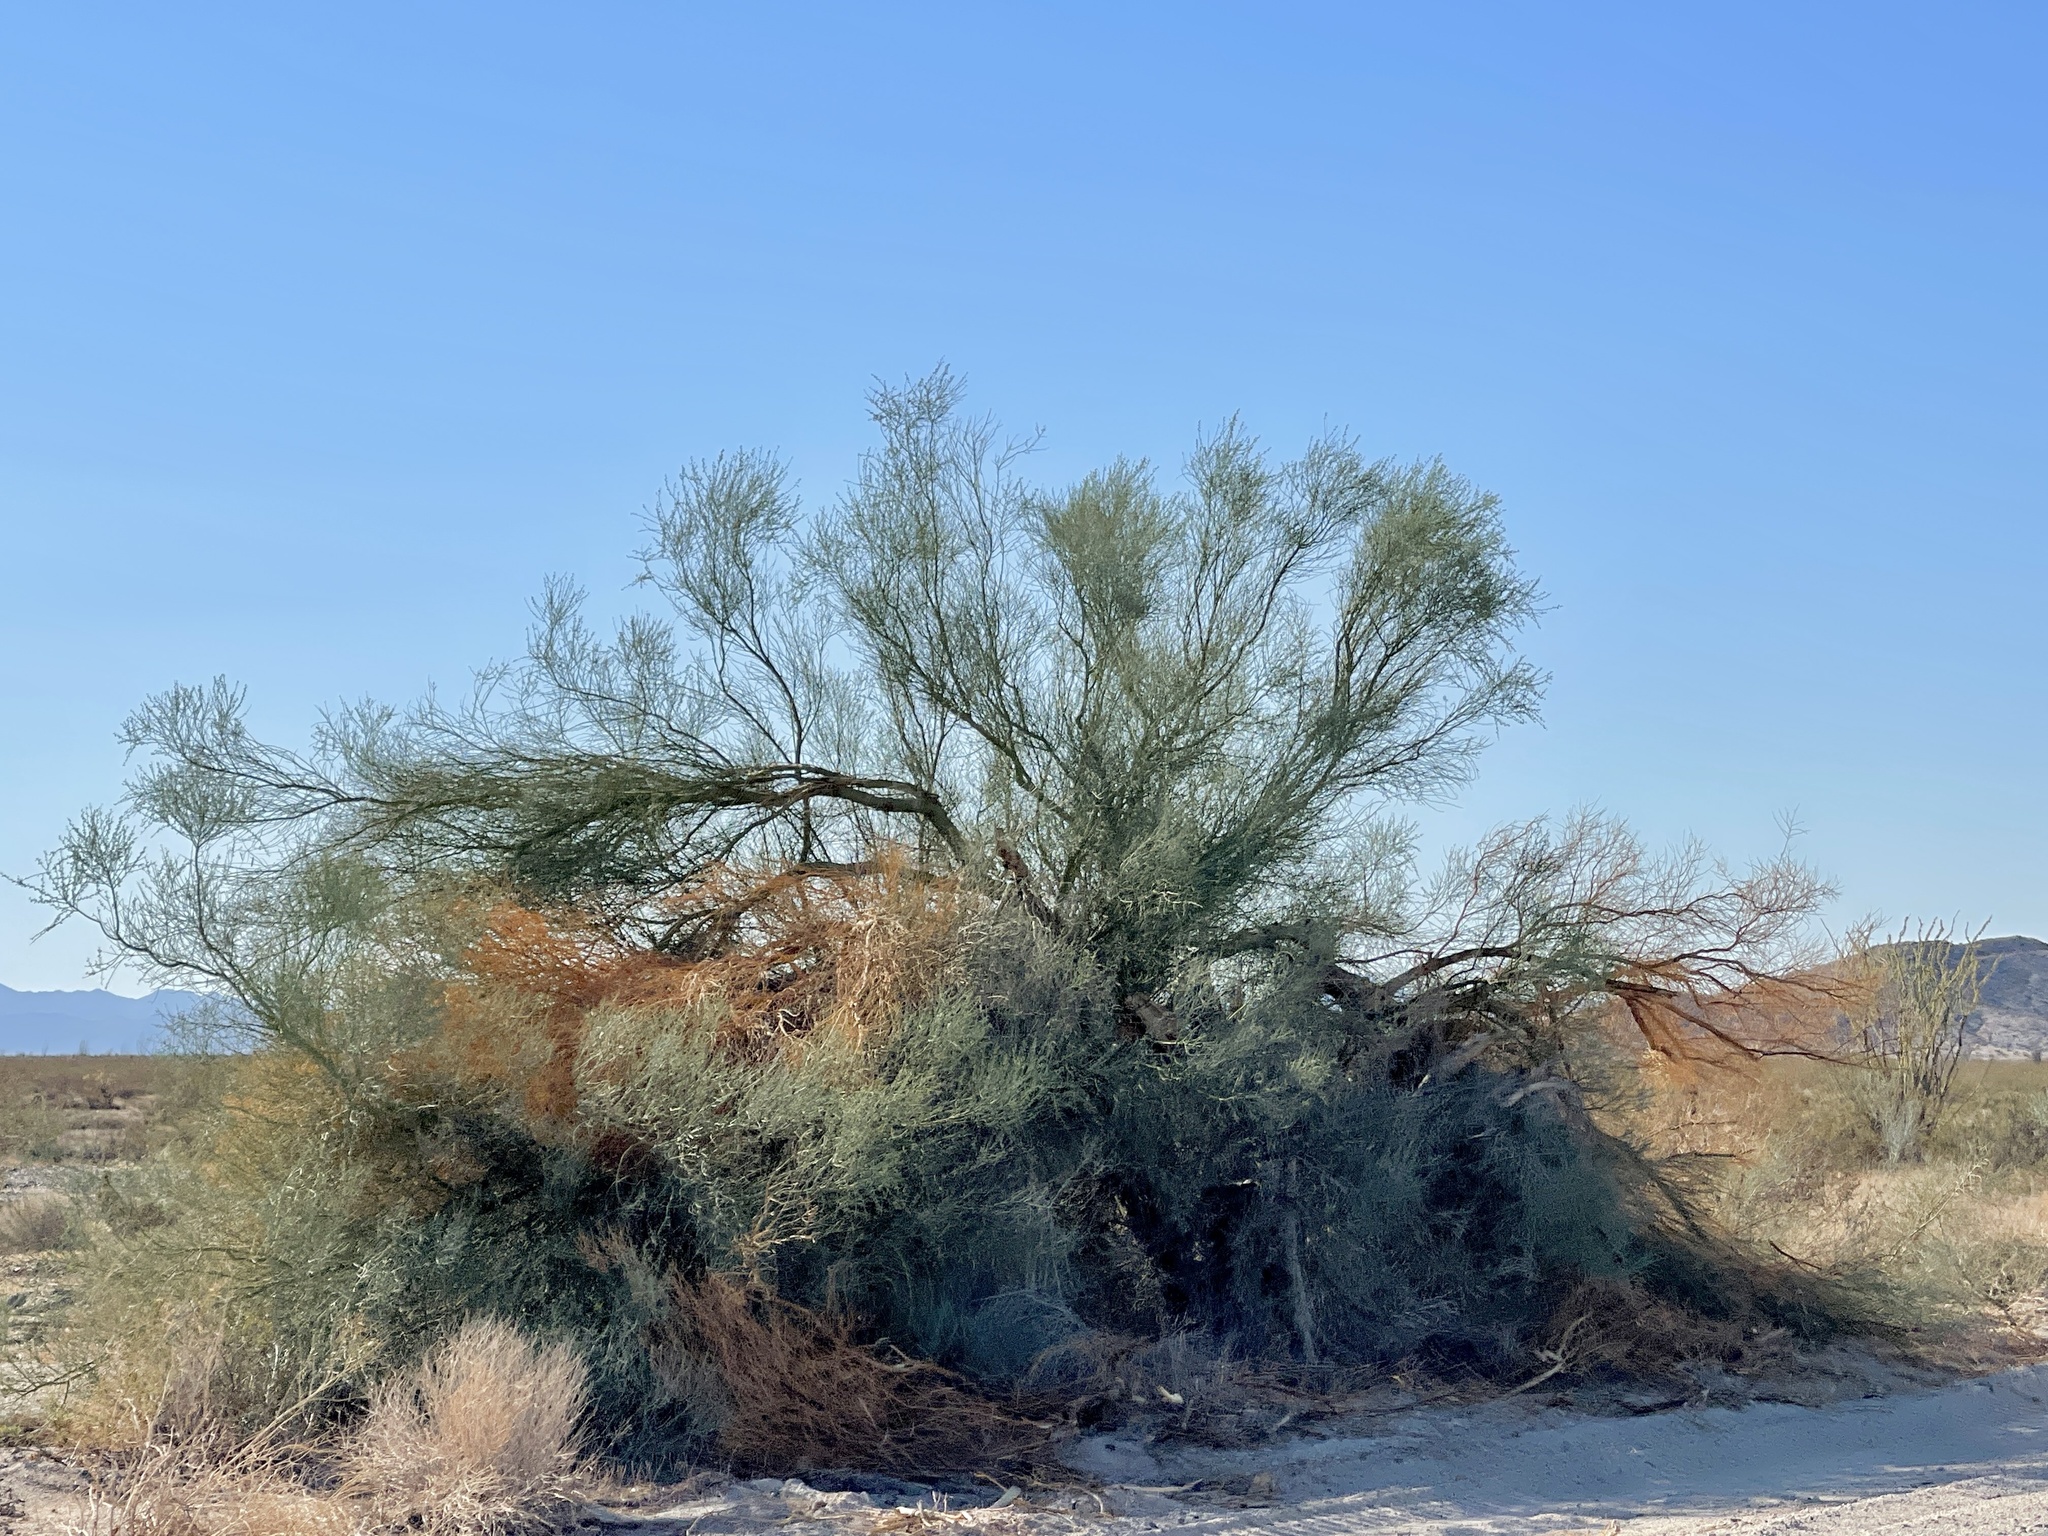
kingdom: Plantae
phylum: Tracheophyta
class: Magnoliopsida
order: Fabales
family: Fabaceae
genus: Parkinsonia
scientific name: Parkinsonia florida
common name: Blue paloverde
